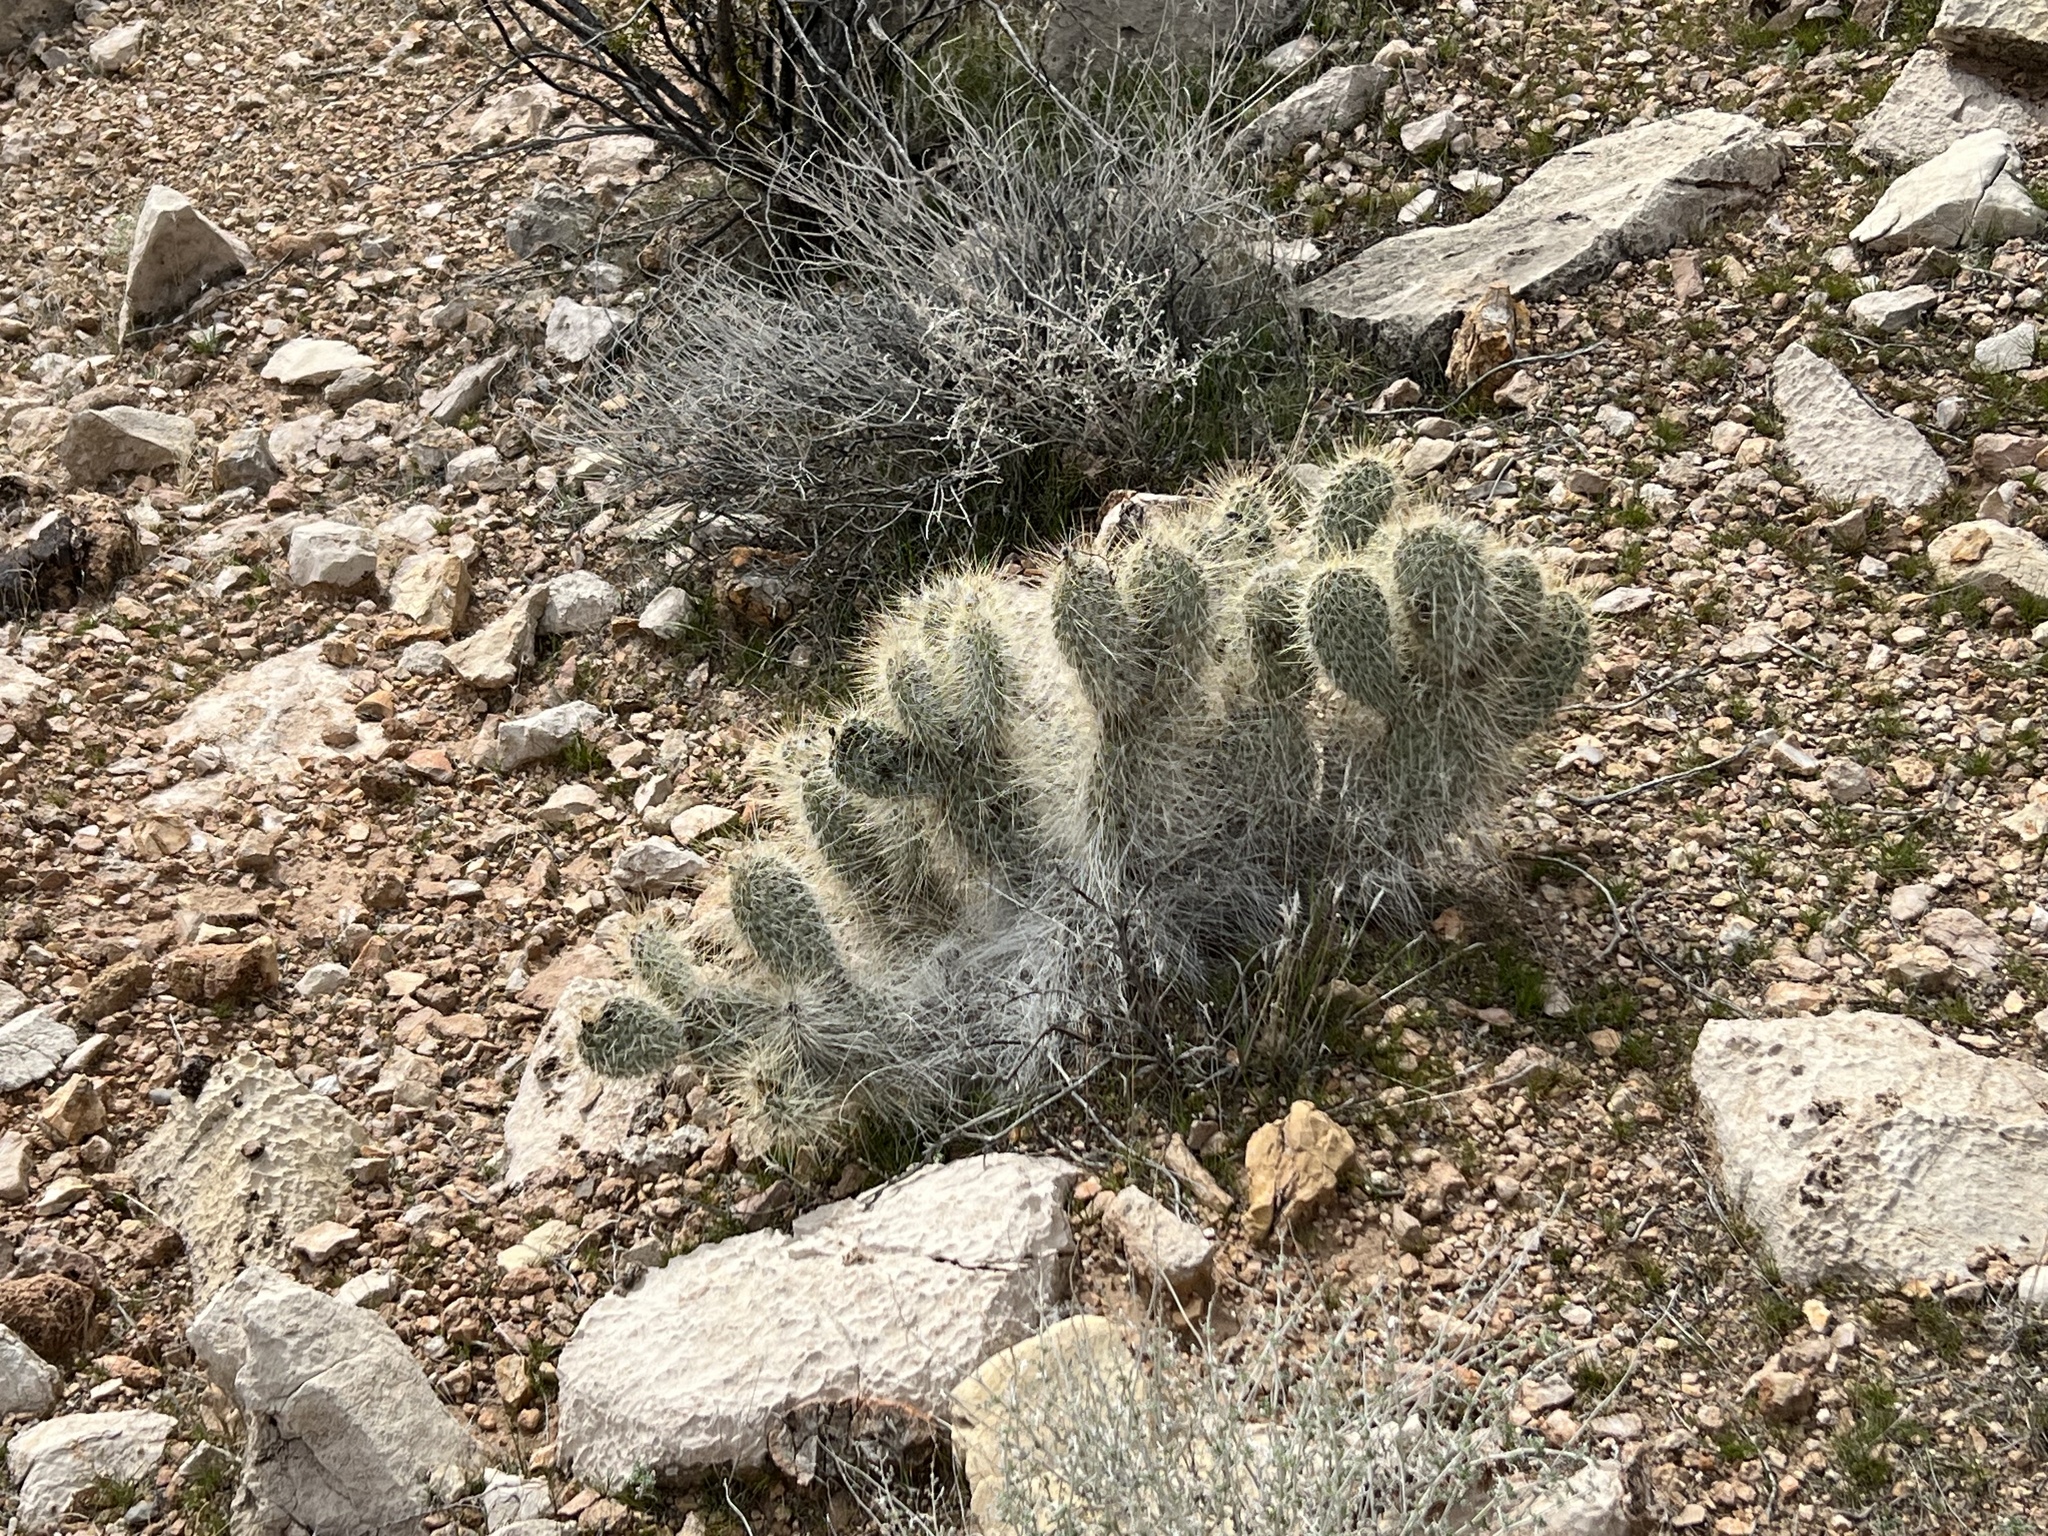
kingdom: Plantae
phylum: Tracheophyta
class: Magnoliopsida
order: Caryophyllales
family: Cactaceae
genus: Opuntia
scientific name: Opuntia polyacantha
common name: Plains prickly-pear
